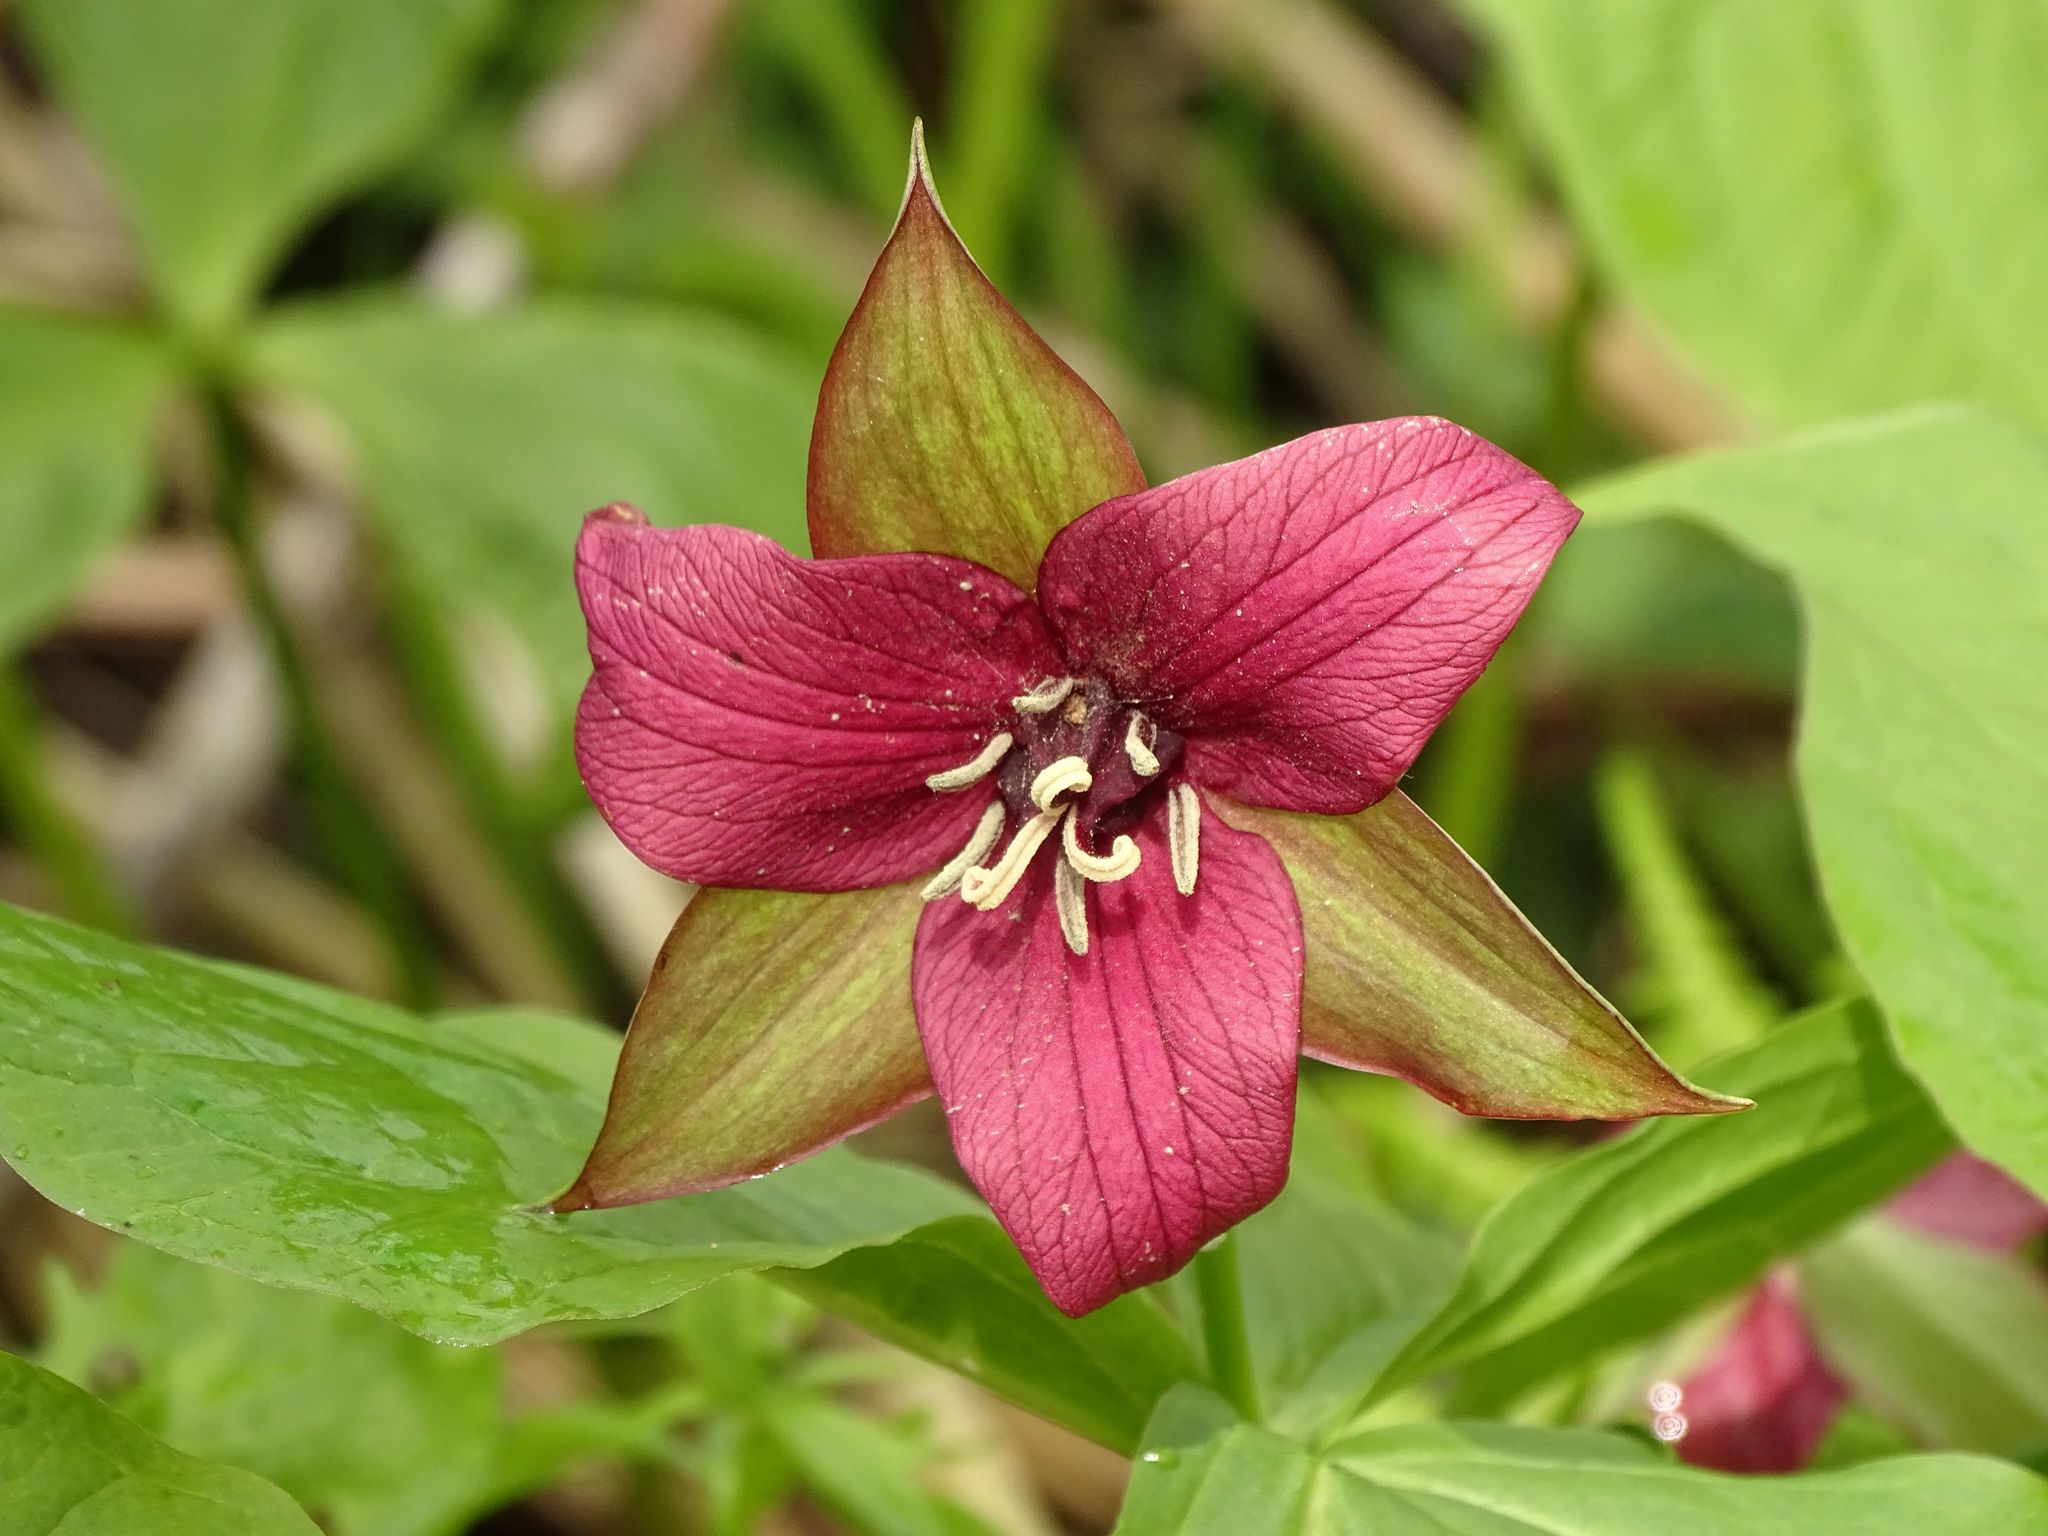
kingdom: Plantae
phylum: Tracheophyta
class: Liliopsida
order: Liliales
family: Melanthiaceae
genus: Trillium
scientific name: Trillium erectum
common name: Purple trillium
